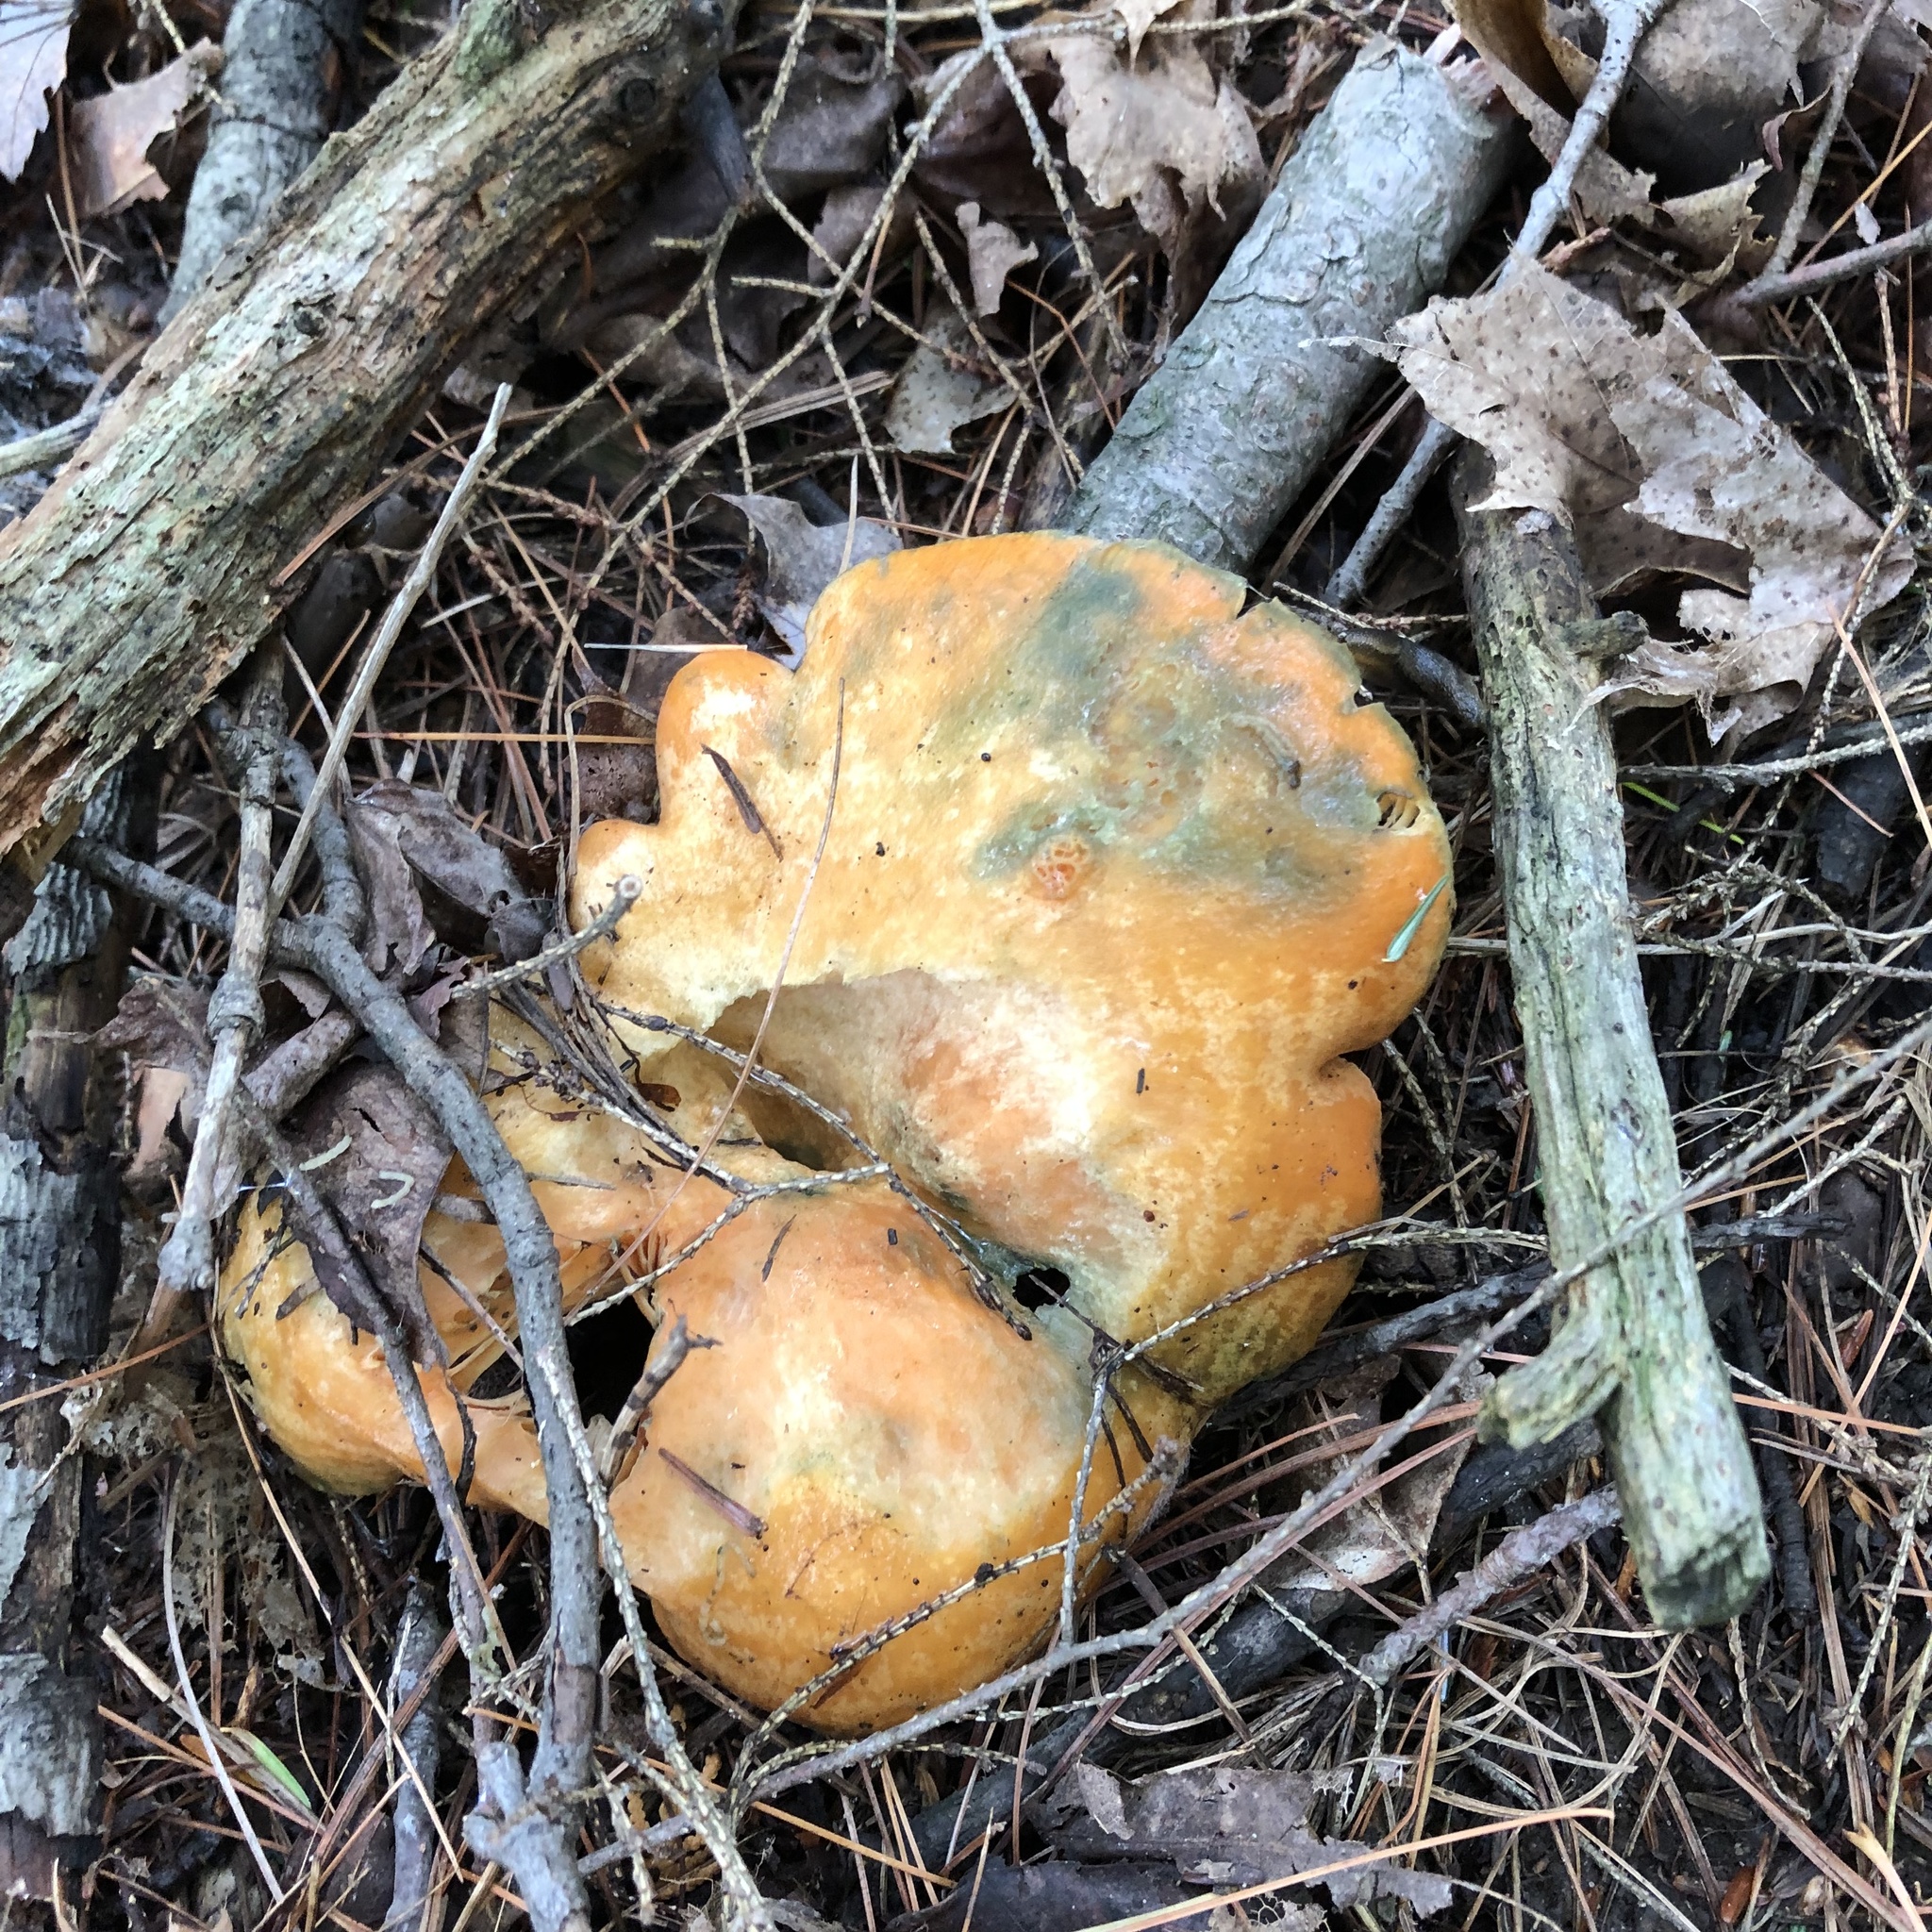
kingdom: Fungi
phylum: Basidiomycota
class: Agaricomycetes
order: Russulales
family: Russulaceae
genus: Lactarius
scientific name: Lactarius deterrimus
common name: False saffron milkcap
